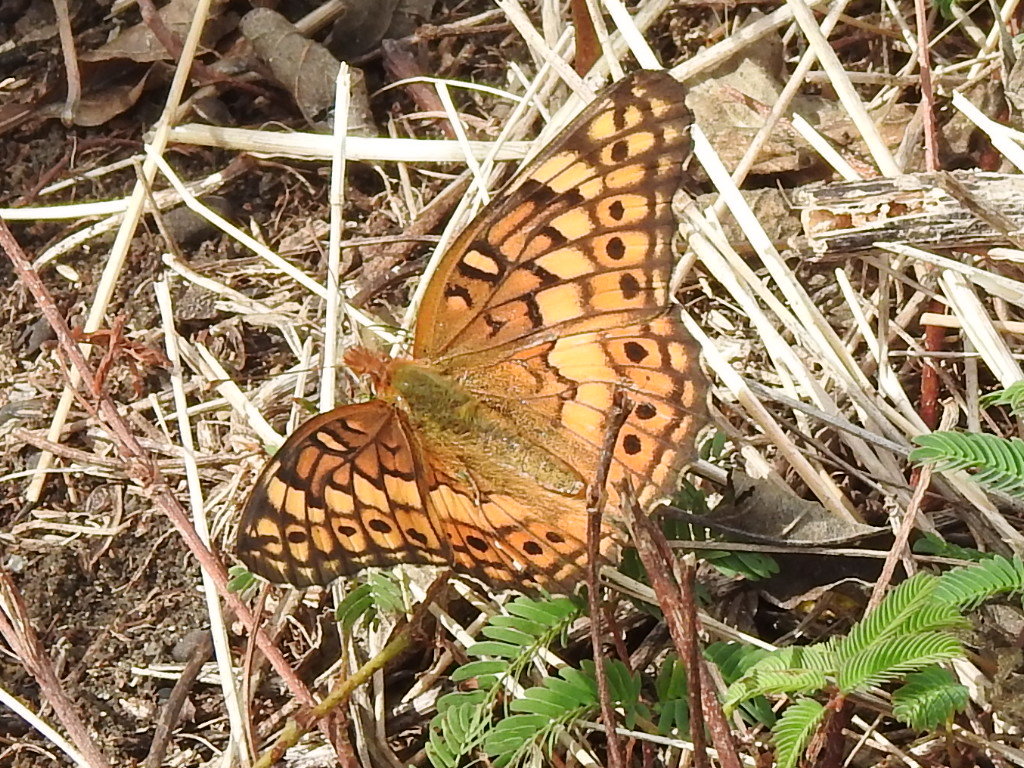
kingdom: Animalia
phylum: Arthropoda
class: Insecta
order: Lepidoptera
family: Nymphalidae
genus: Euptoieta
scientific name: Euptoieta claudia
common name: Variegated fritillary
